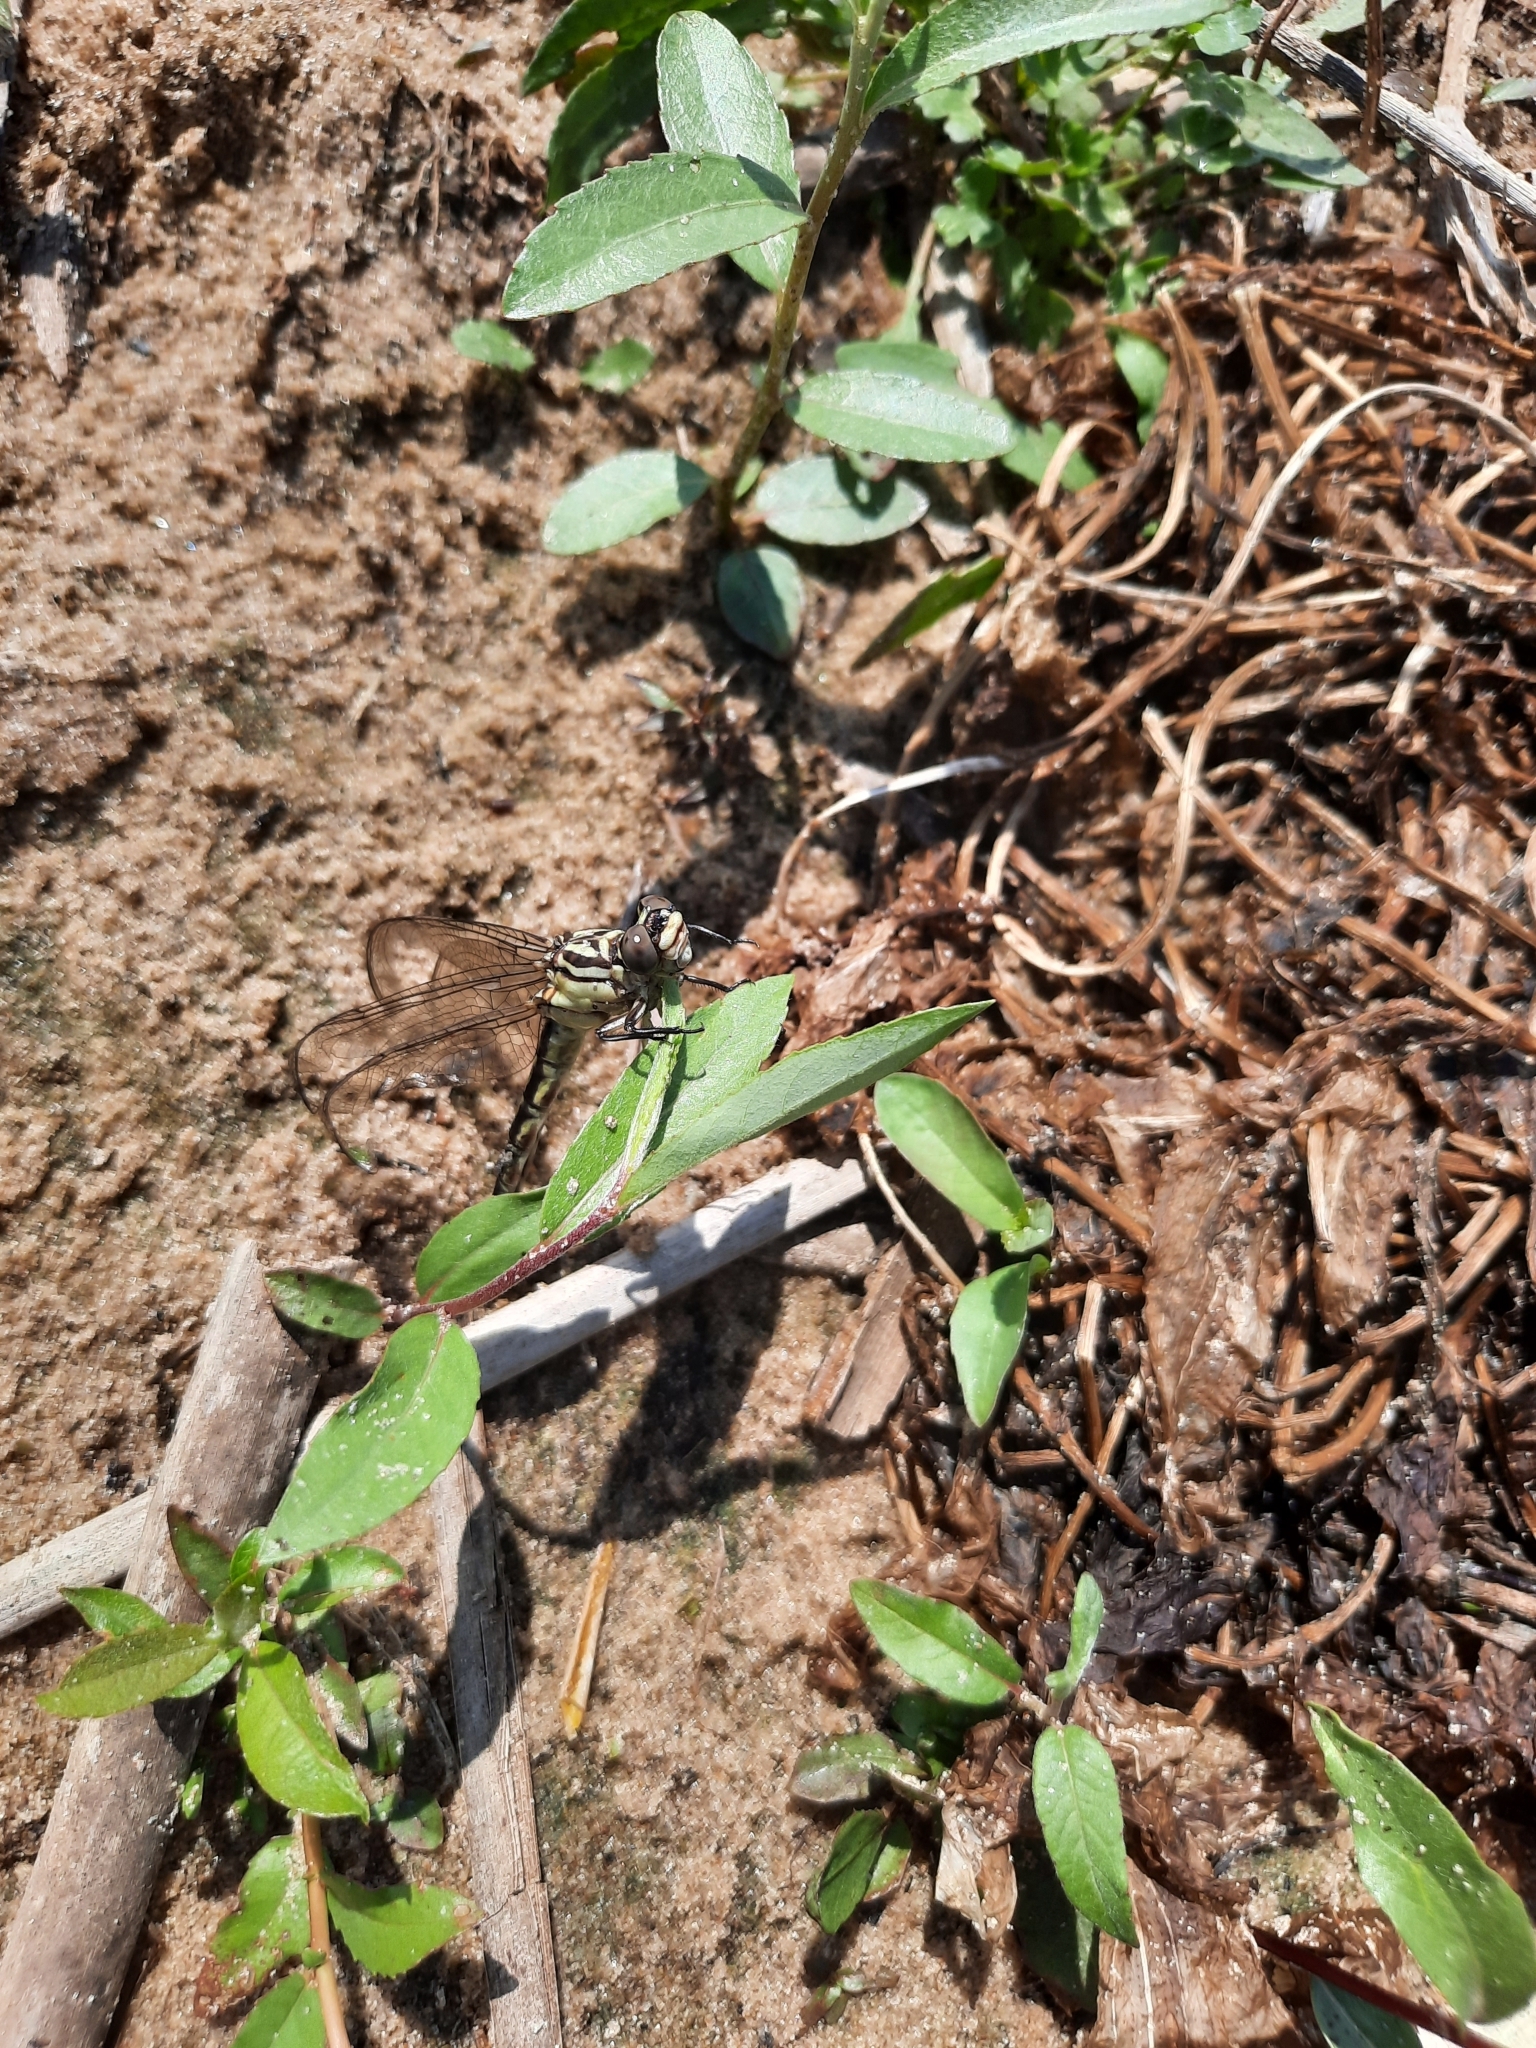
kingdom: Animalia
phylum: Arthropoda
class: Insecta
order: Odonata
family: Gomphidae
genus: Stylurus
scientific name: Stylurus flavipes
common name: River clubtail
